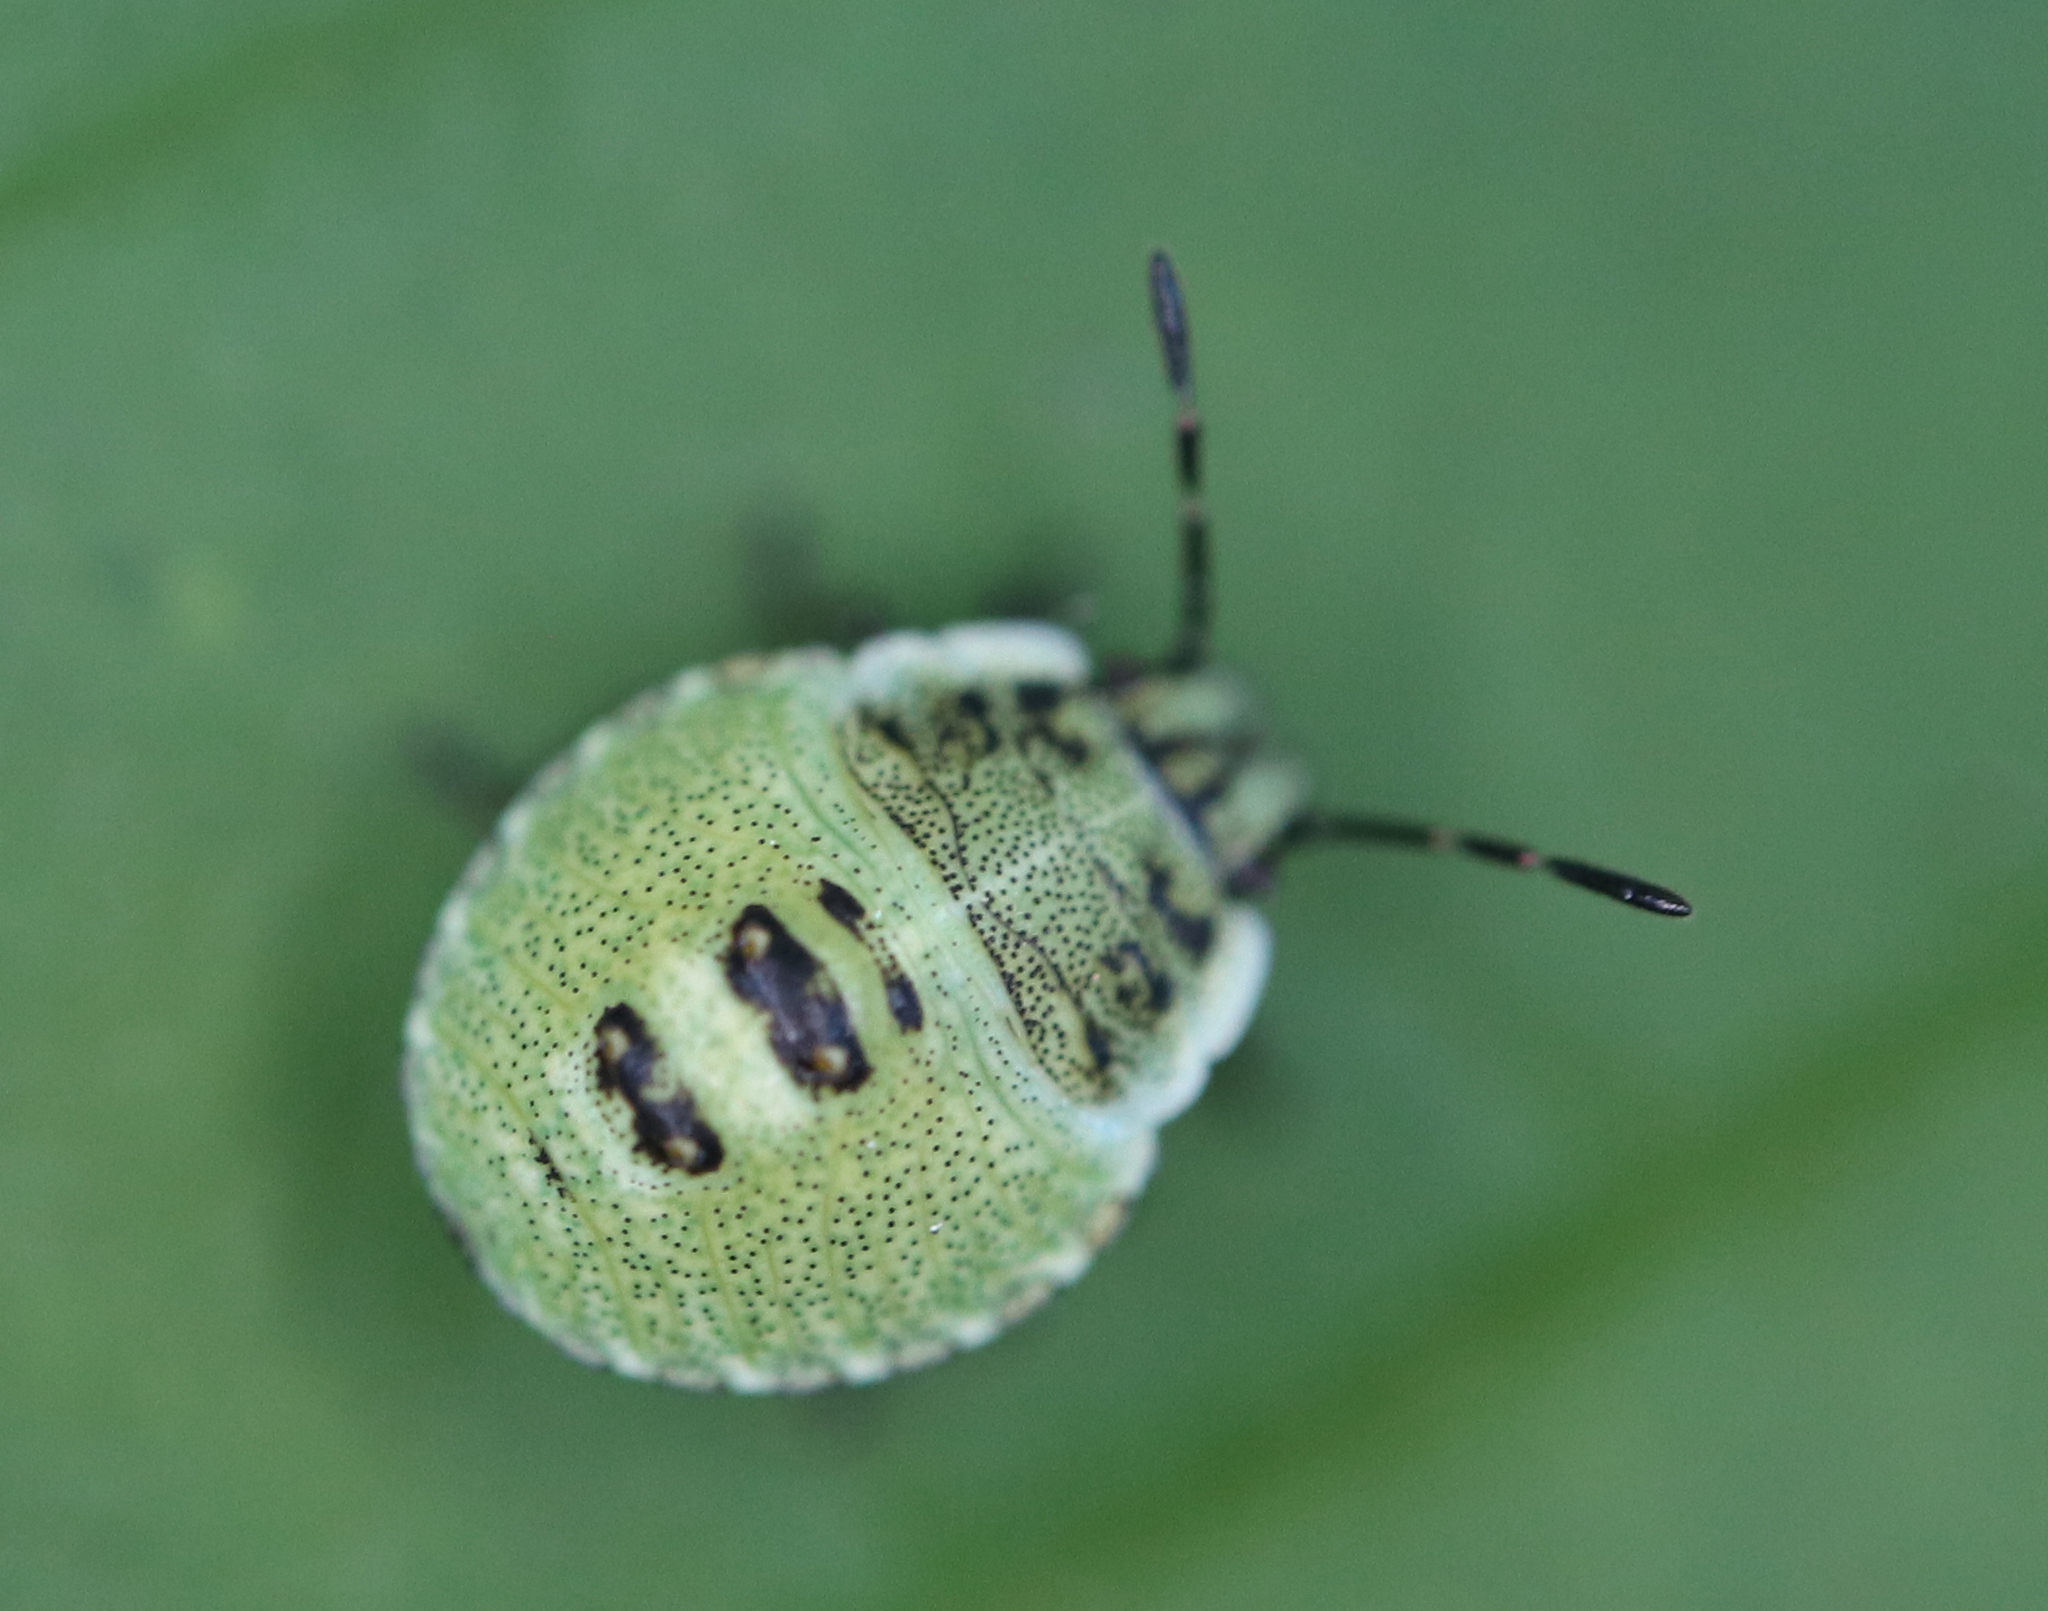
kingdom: Animalia
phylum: Arthropoda
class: Insecta
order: Hemiptera
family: Pentatomidae
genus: Palomena
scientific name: Palomena prasina
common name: Green shieldbug
